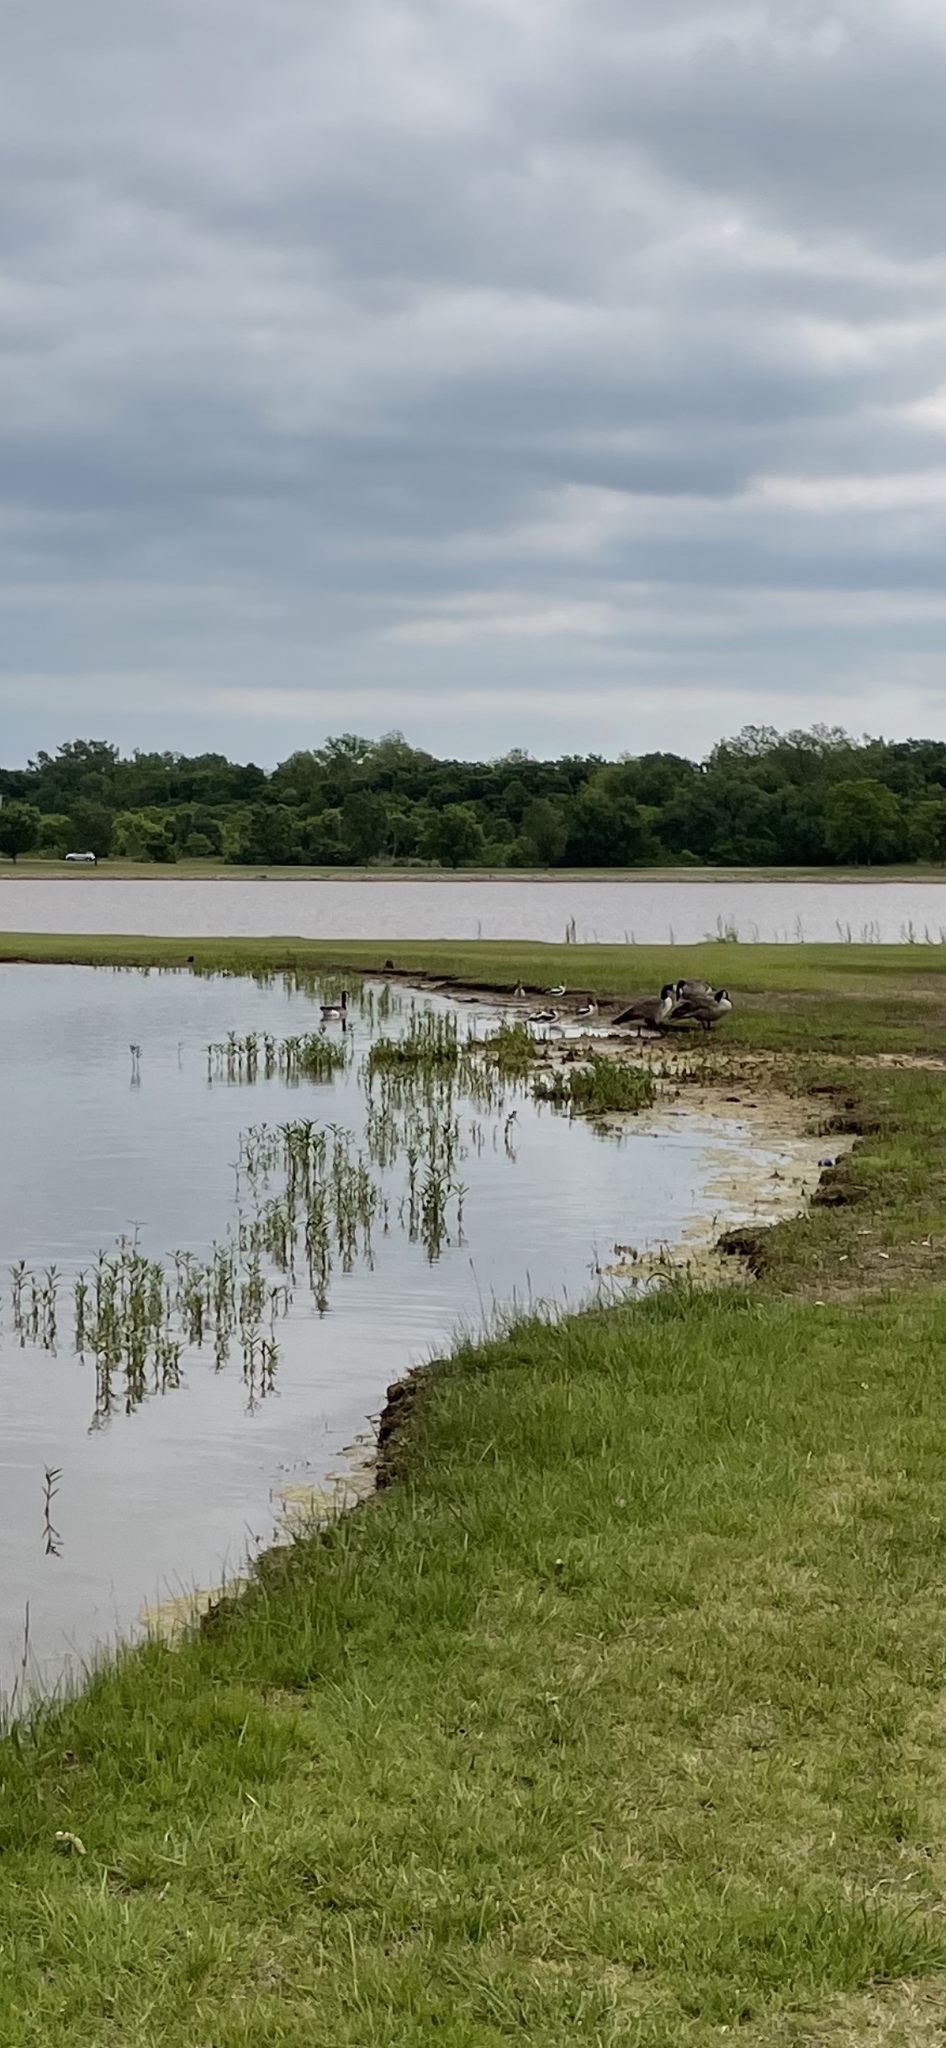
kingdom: Animalia
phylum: Chordata
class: Aves
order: Charadriiformes
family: Recurvirostridae
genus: Recurvirostra
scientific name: Recurvirostra americana
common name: American avocet
